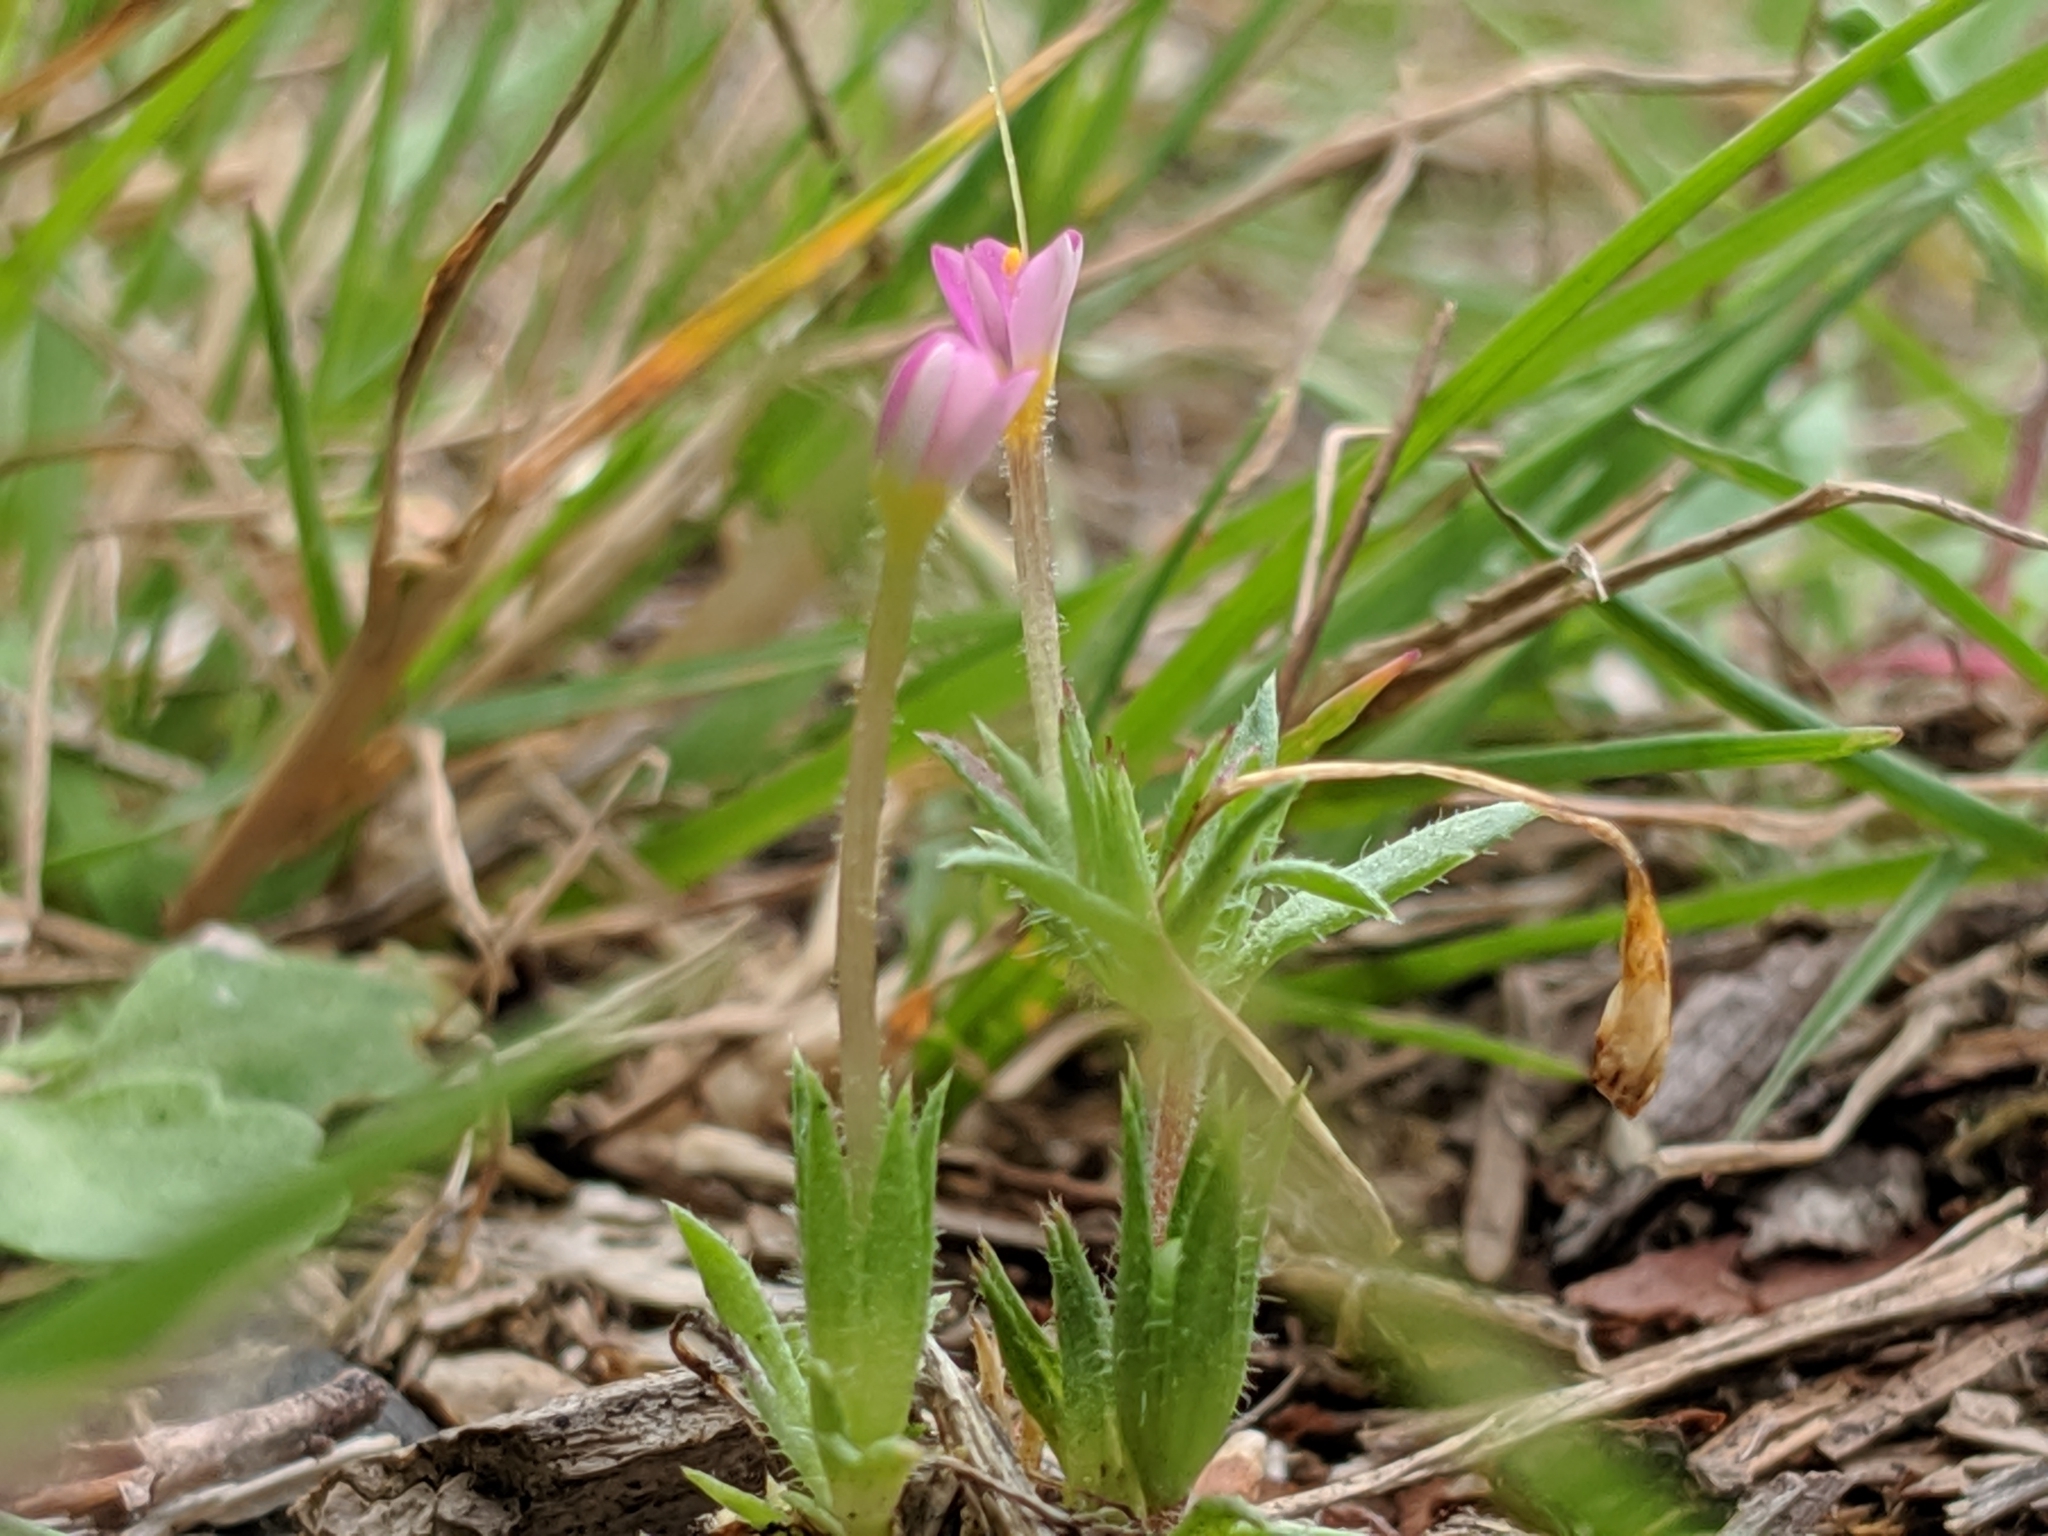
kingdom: Plantae
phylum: Tracheophyta
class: Magnoliopsida
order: Ericales
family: Polemoniaceae
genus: Leptosiphon
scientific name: Leptosiphon bicolor
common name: True babystars
